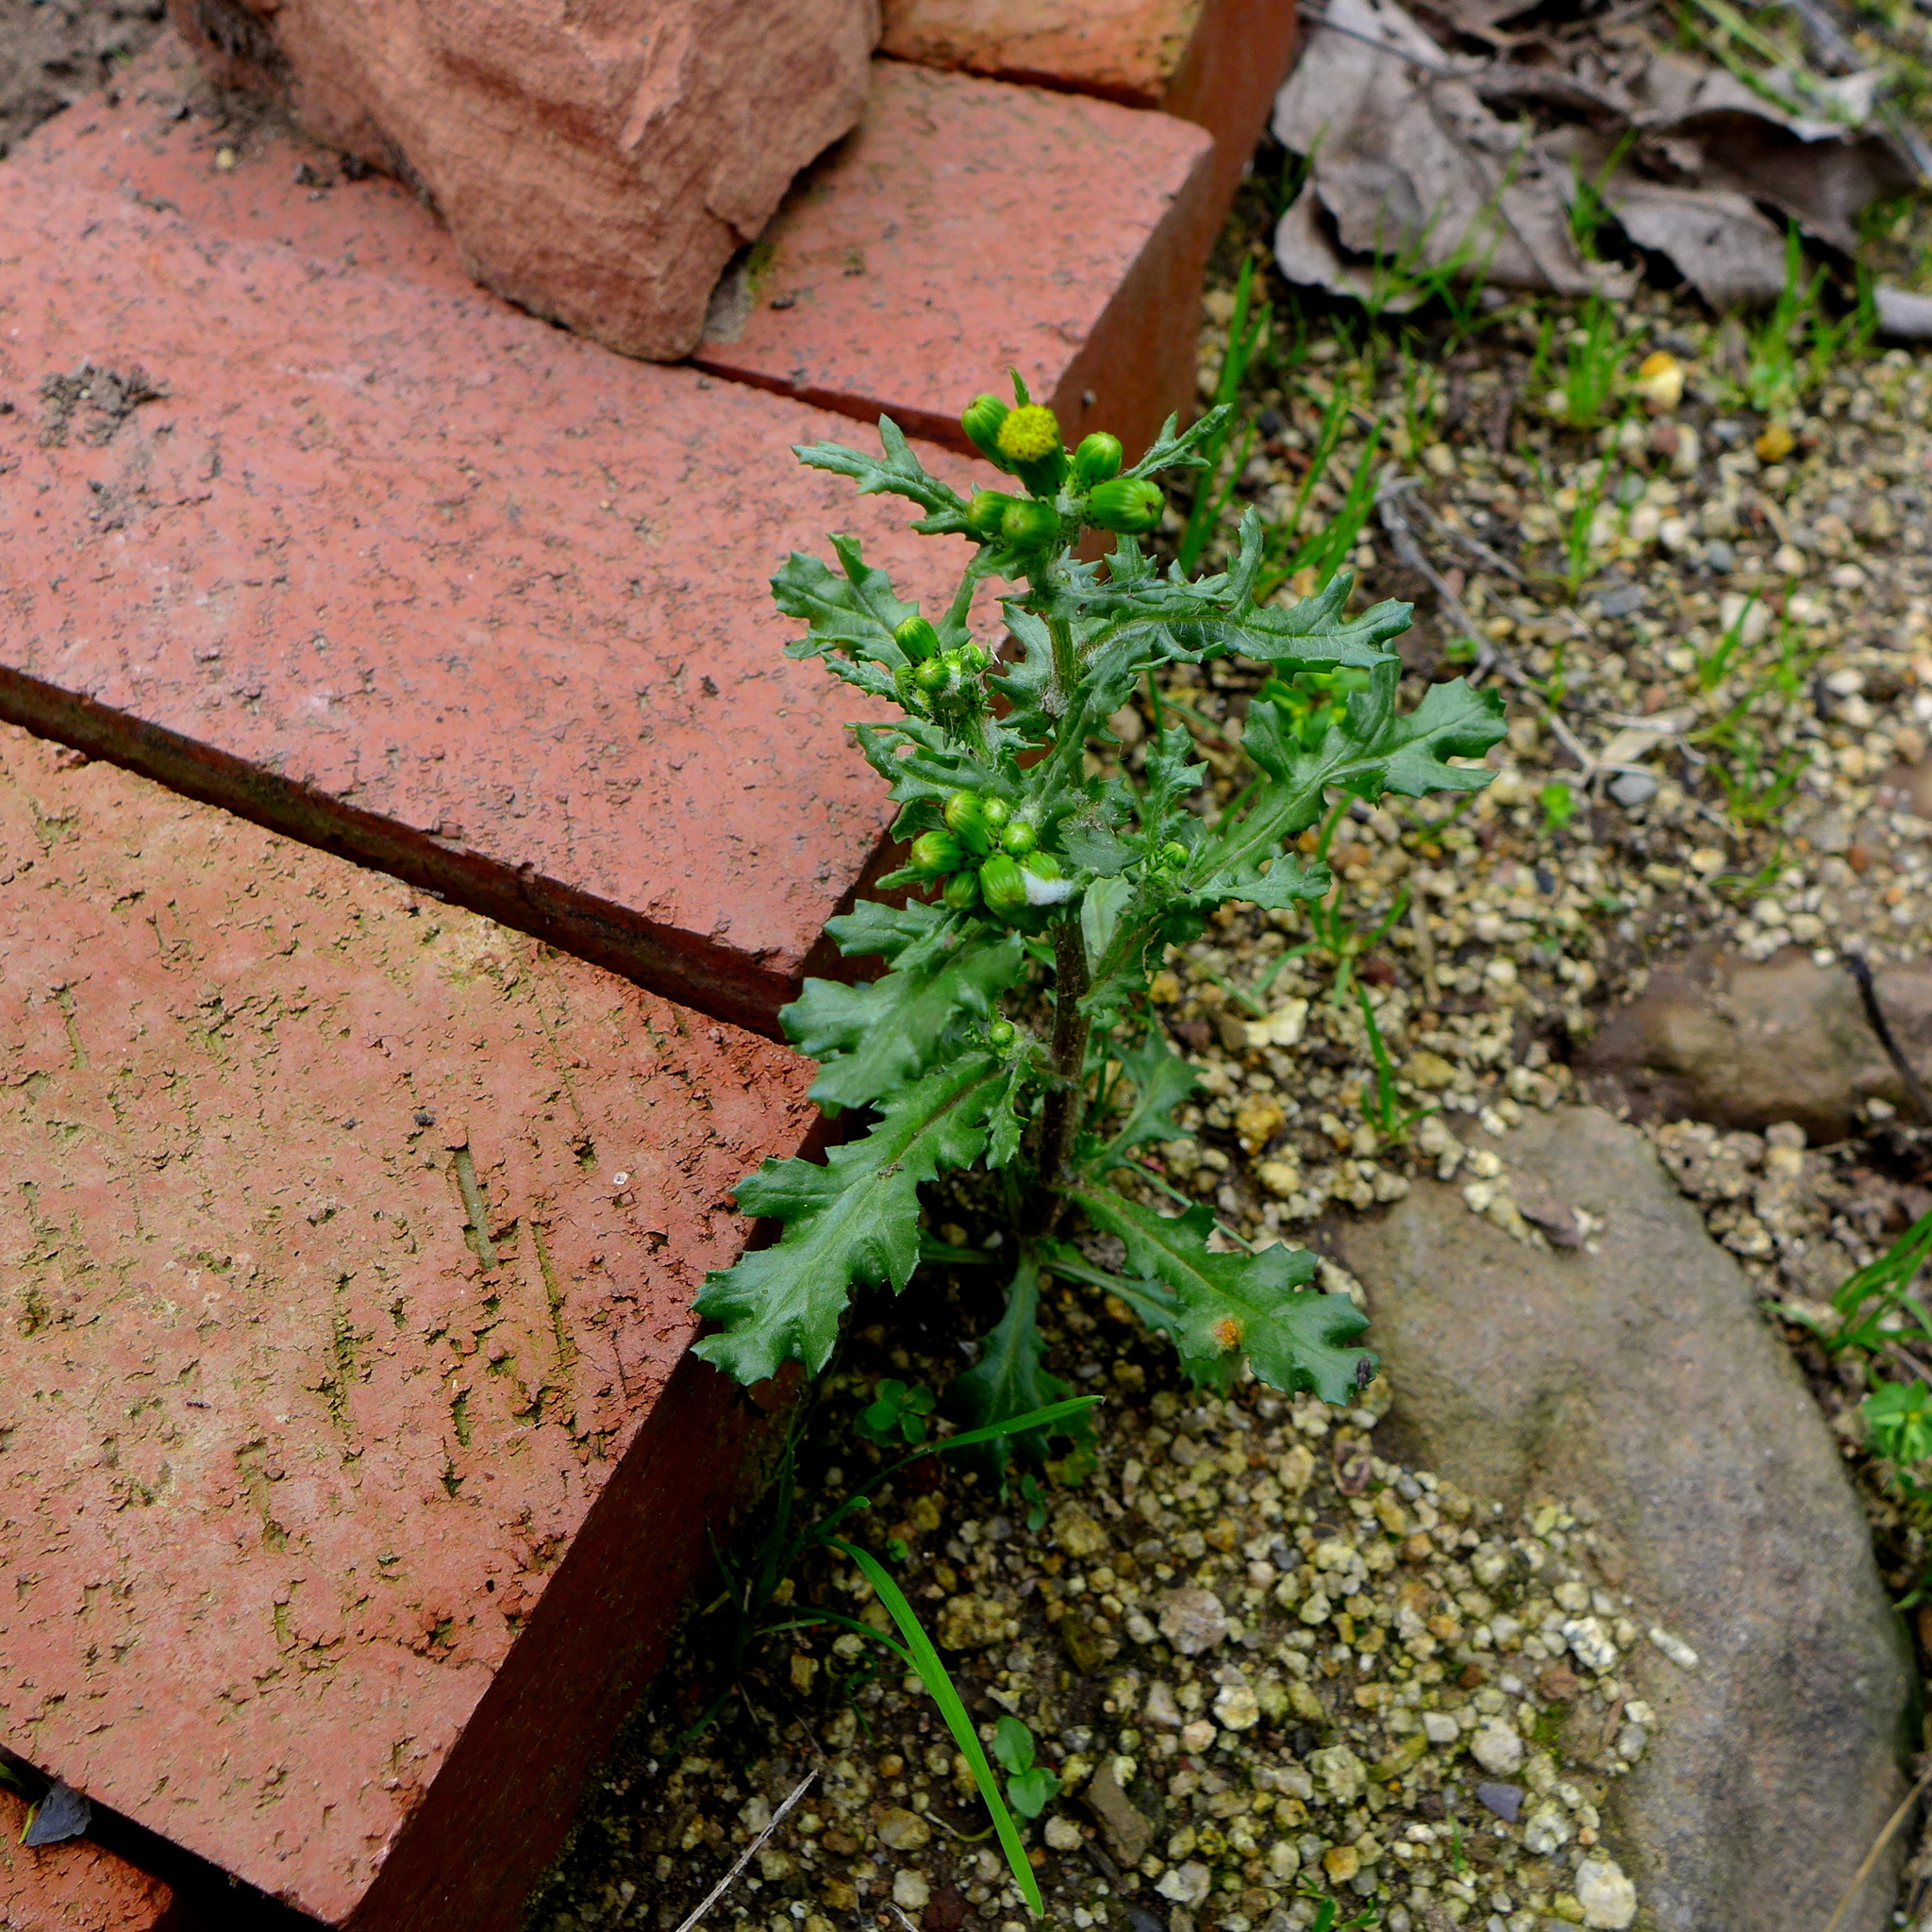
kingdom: Plantae
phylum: Tracheophyta
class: Magnoliopsida
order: Asterales
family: Asteraceae
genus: Senecio
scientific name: Senecio vulgaris
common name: Old-man-in-the-spring
